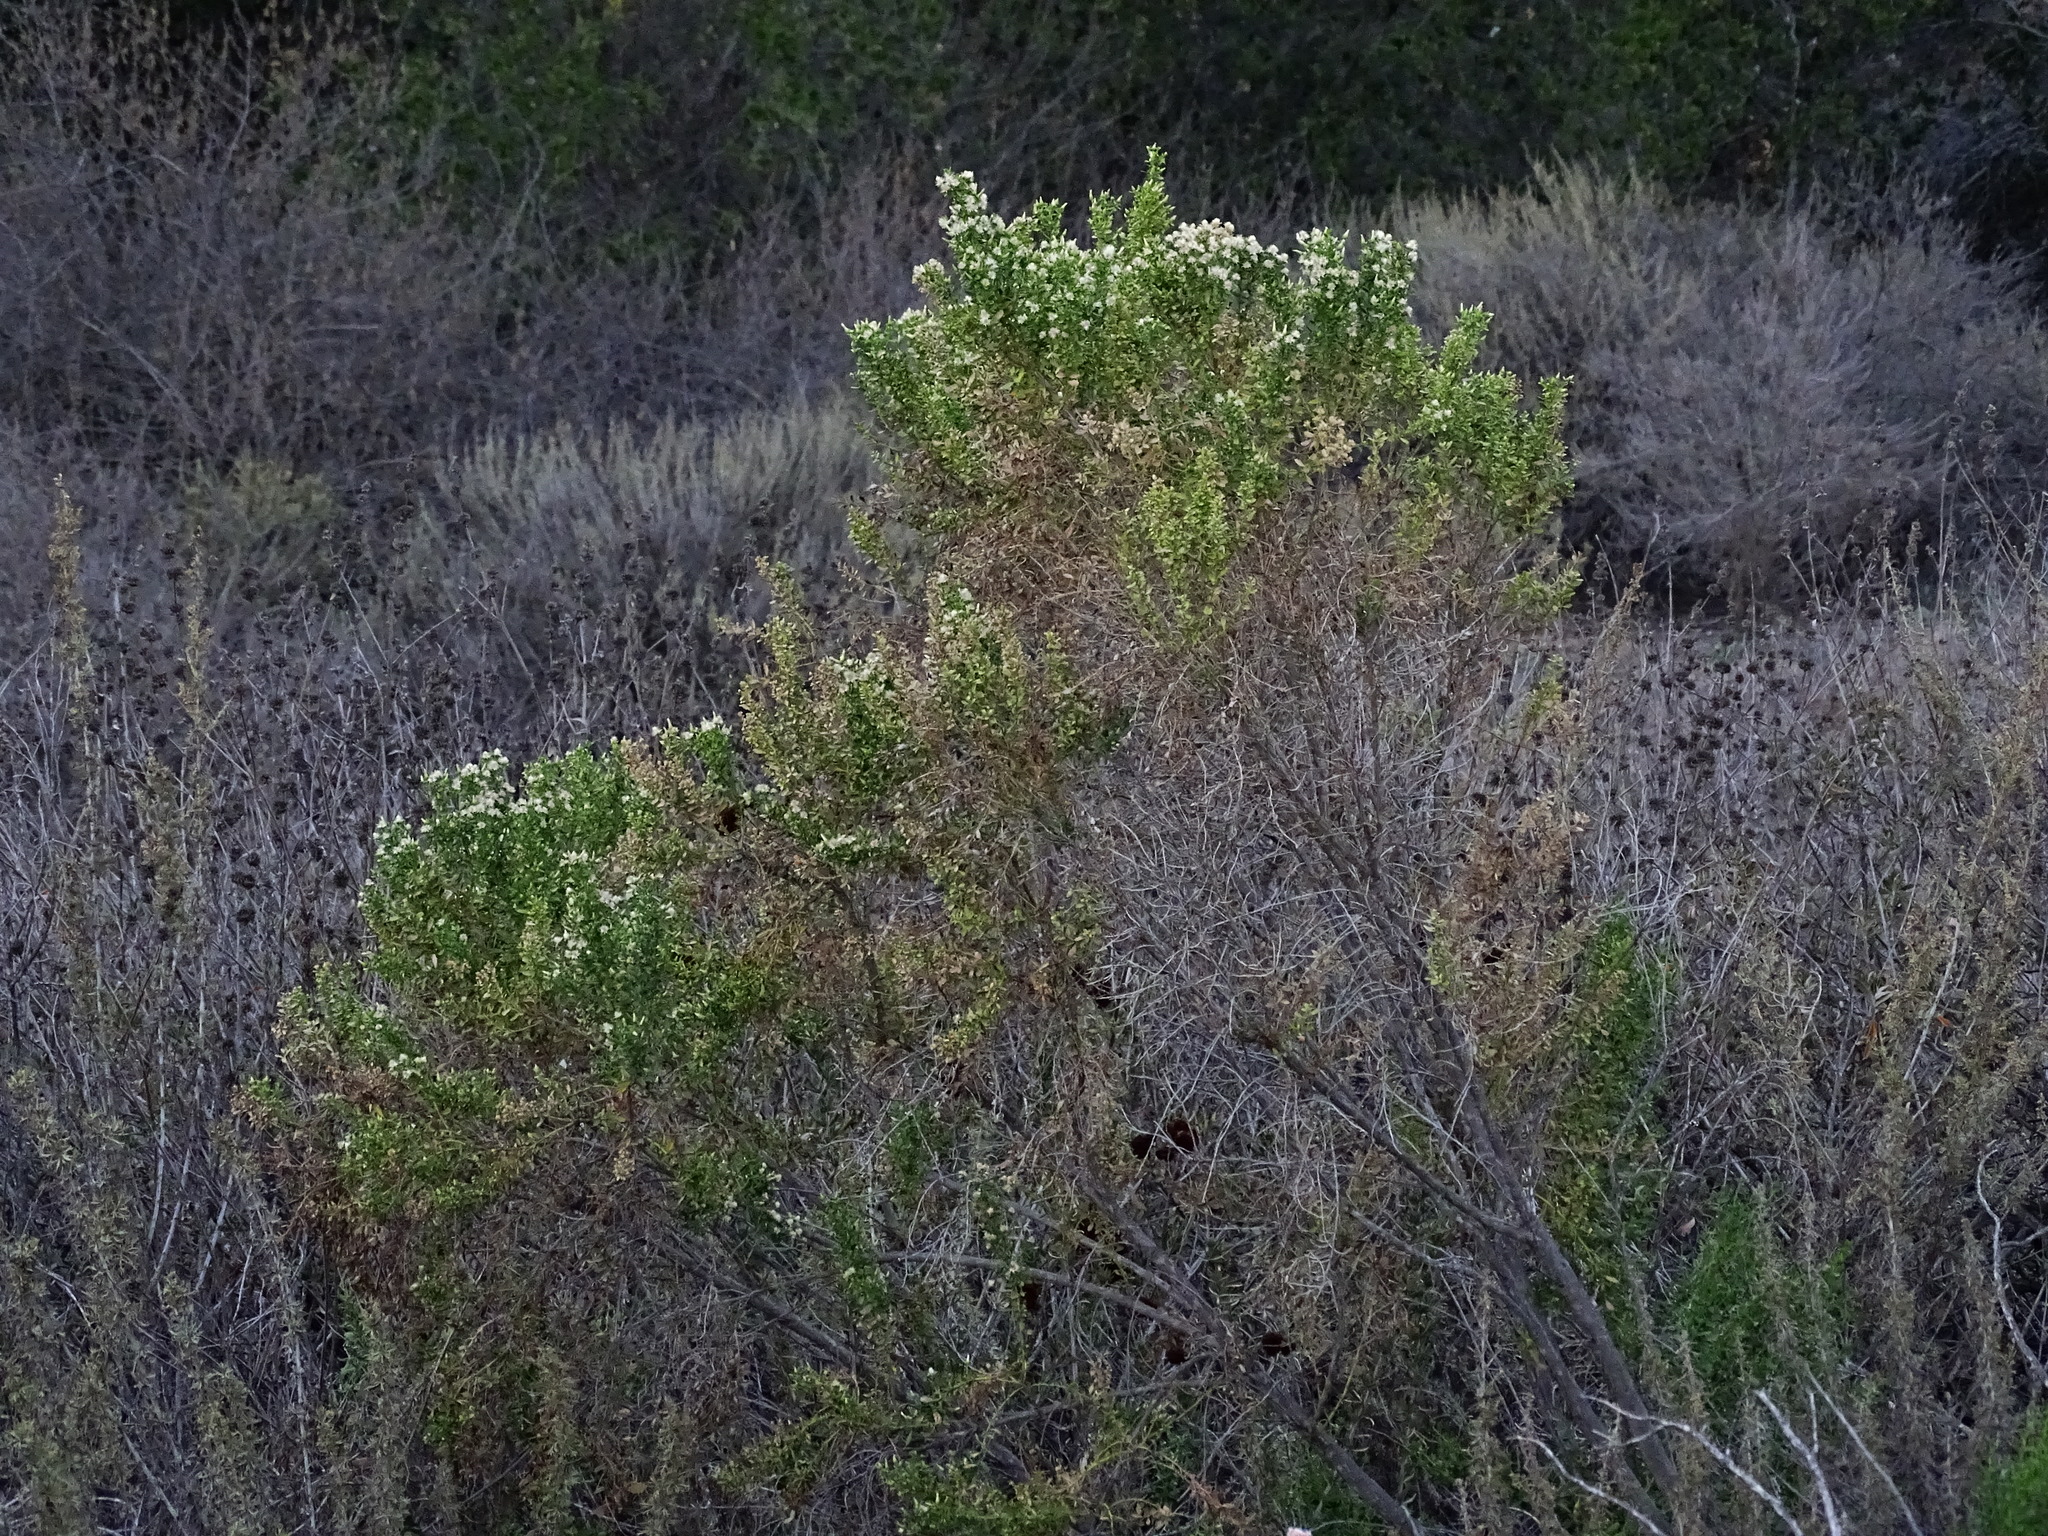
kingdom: Plantae
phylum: Tracheophyta
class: Magnoliopsida
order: Asterales
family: Asteraceae
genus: Baccharis
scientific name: Baccharis pilularis
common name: Coyotebrush
